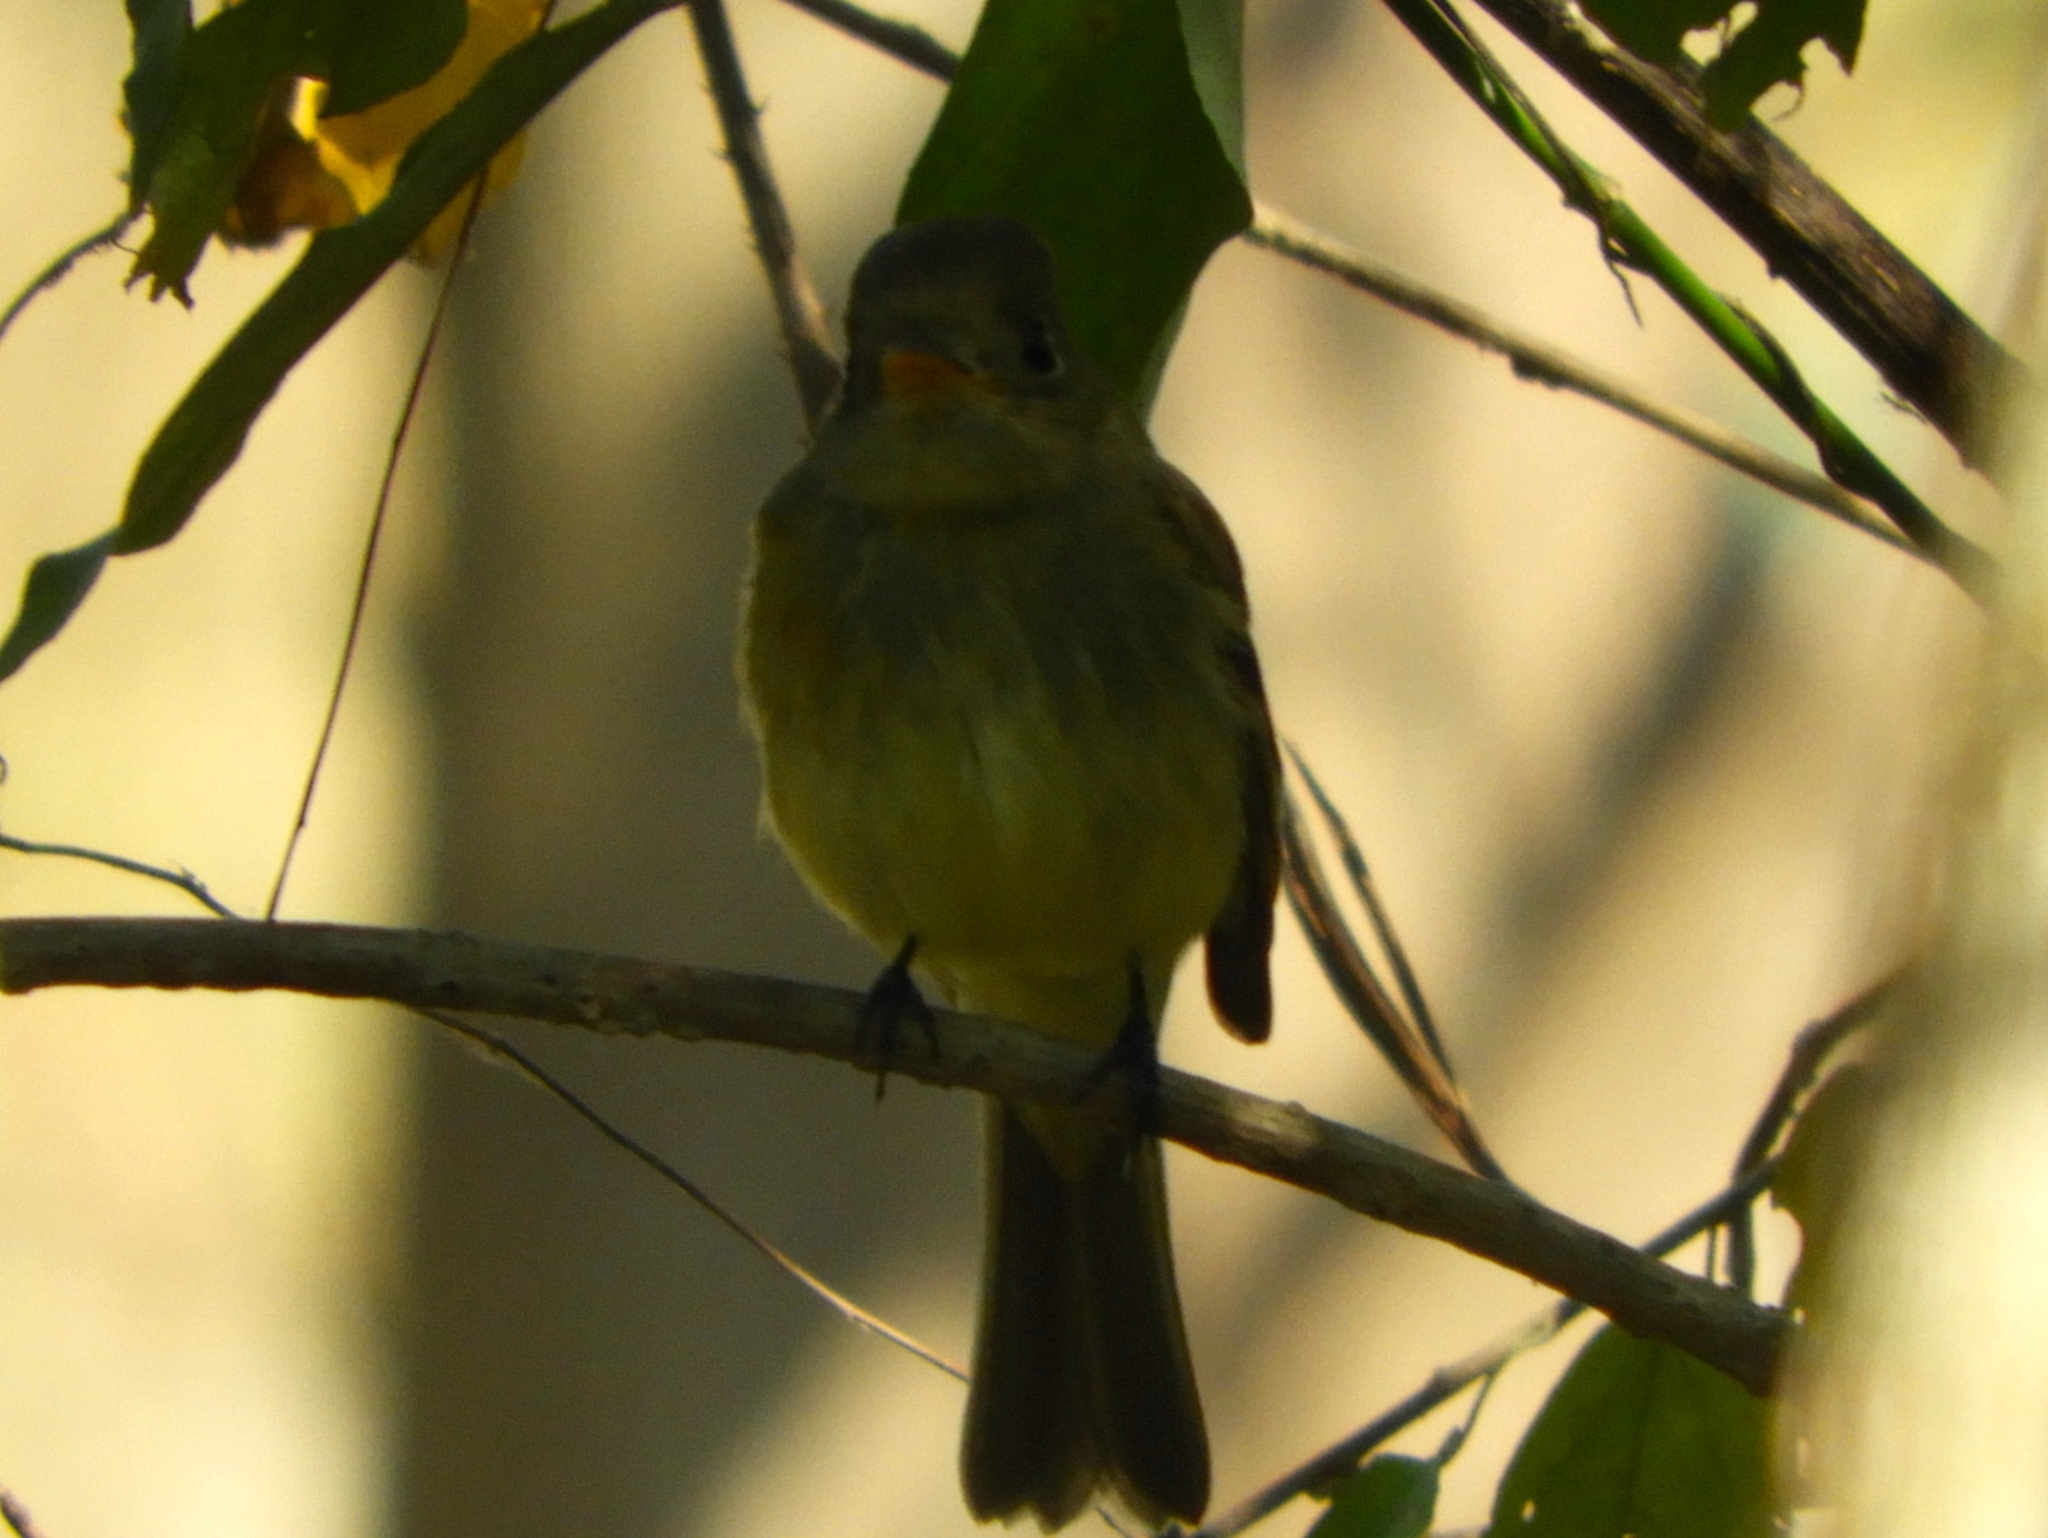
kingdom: Animalia
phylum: Chordata
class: Aves
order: Passeriformes
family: Tyrannidae
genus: Empidonax
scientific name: Empidonax
